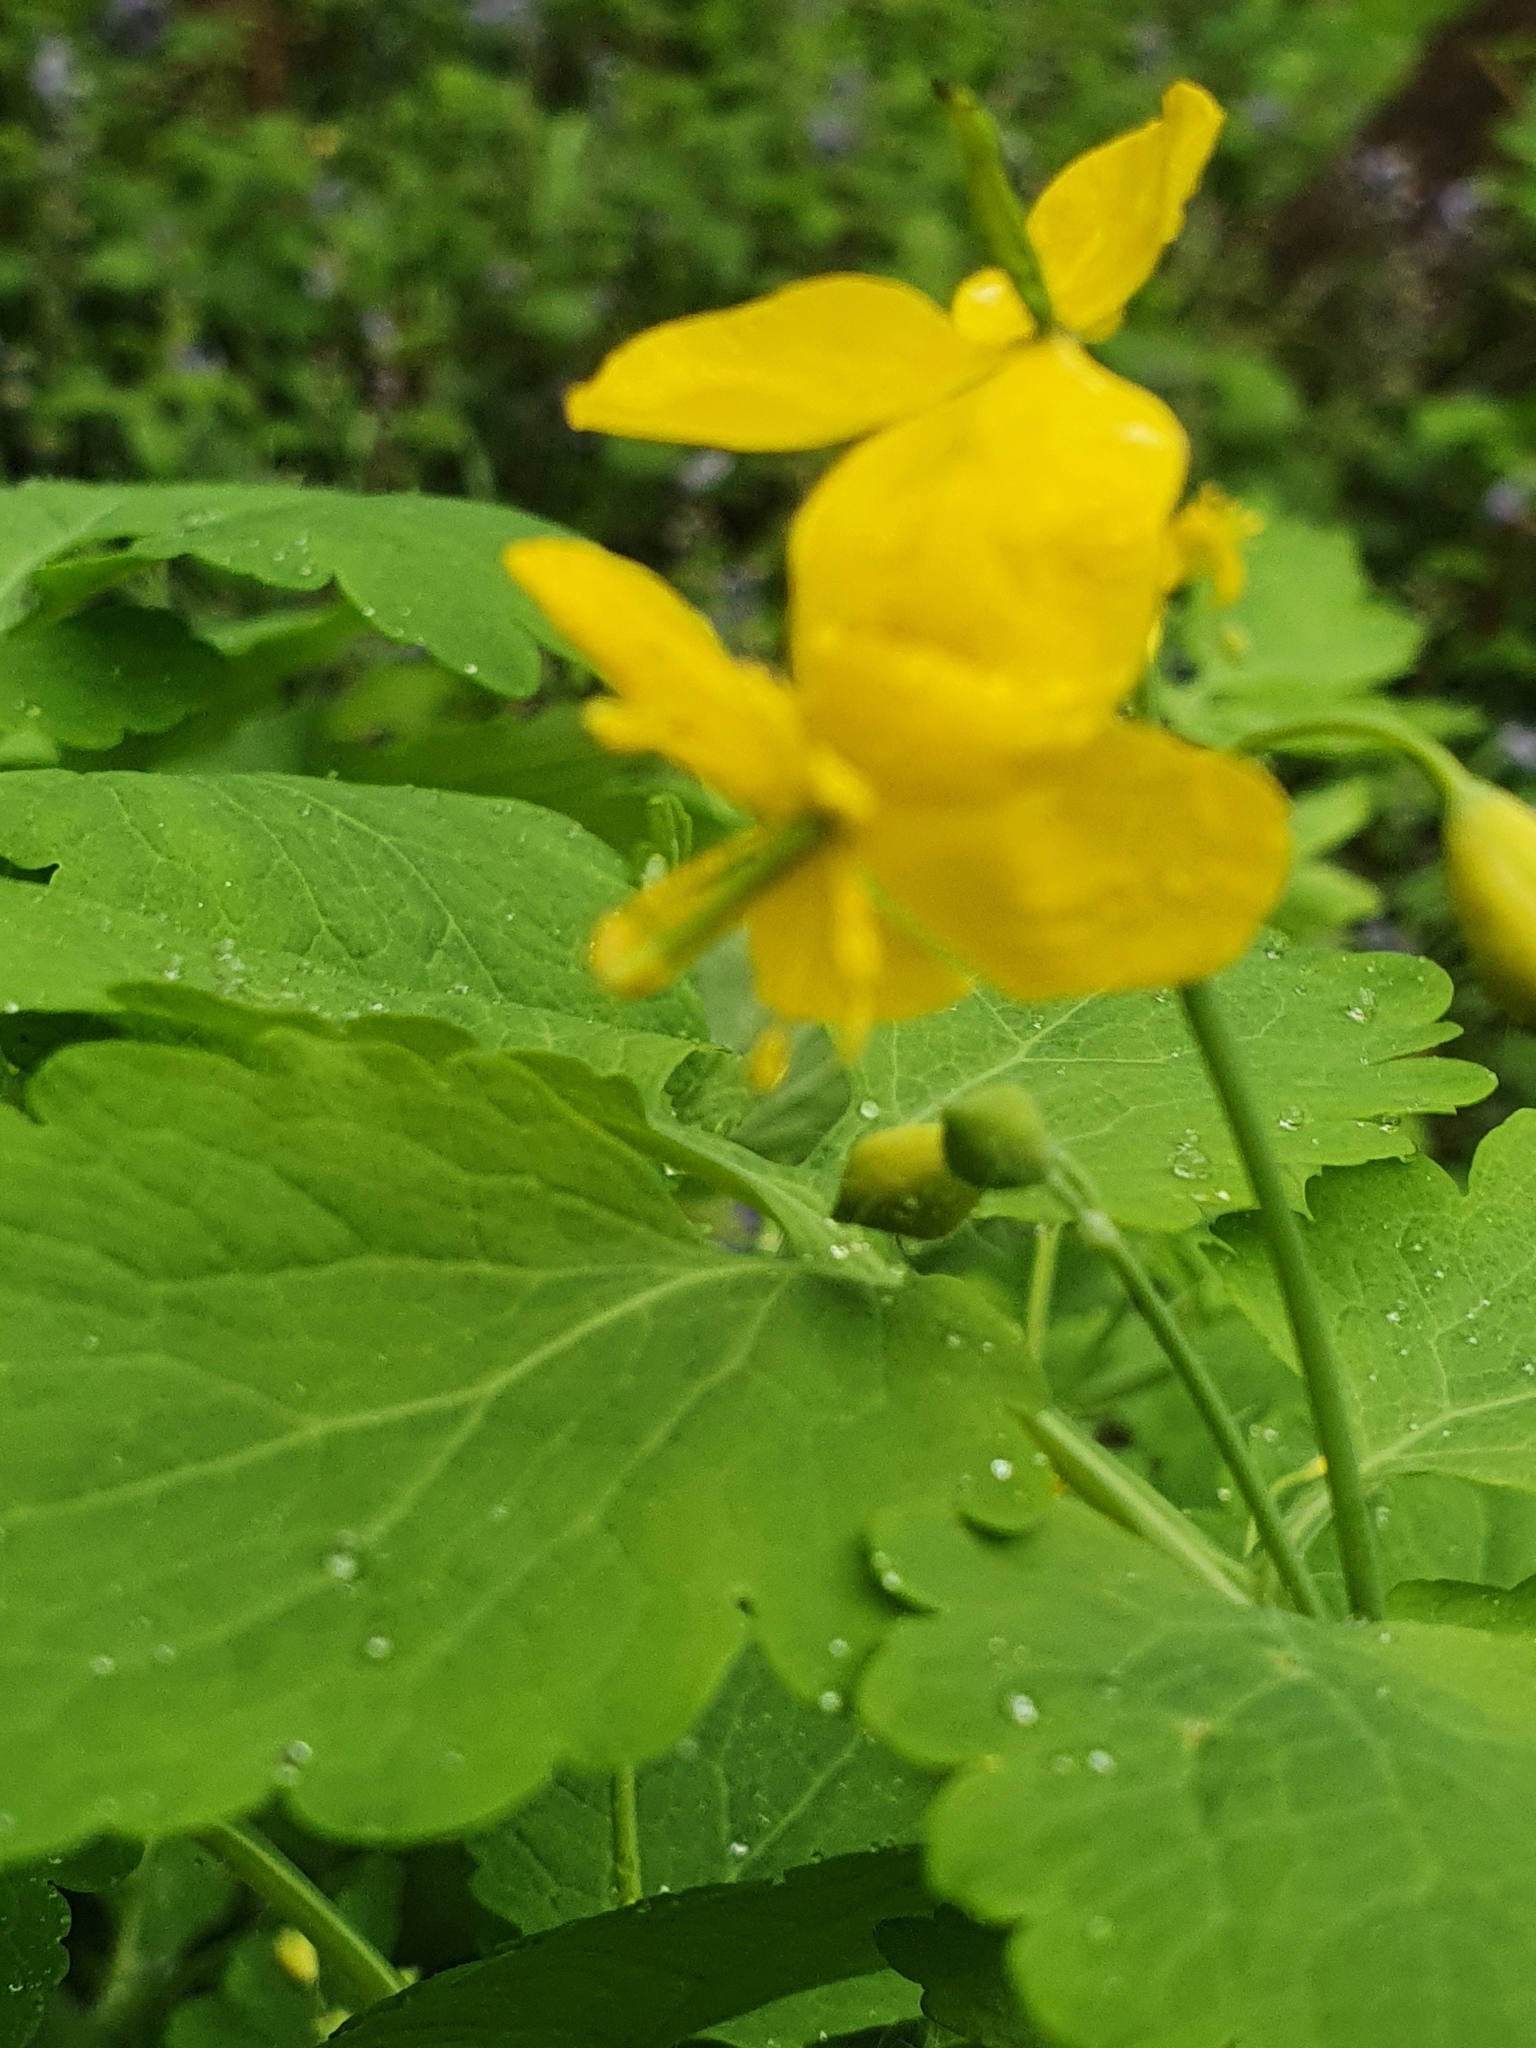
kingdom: Plantae
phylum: Tracheophyta
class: Magnoliopsida
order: Ranunculales
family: Papaveraceae
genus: Chelidonium
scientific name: Chelidonium majus
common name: Greater celandine
